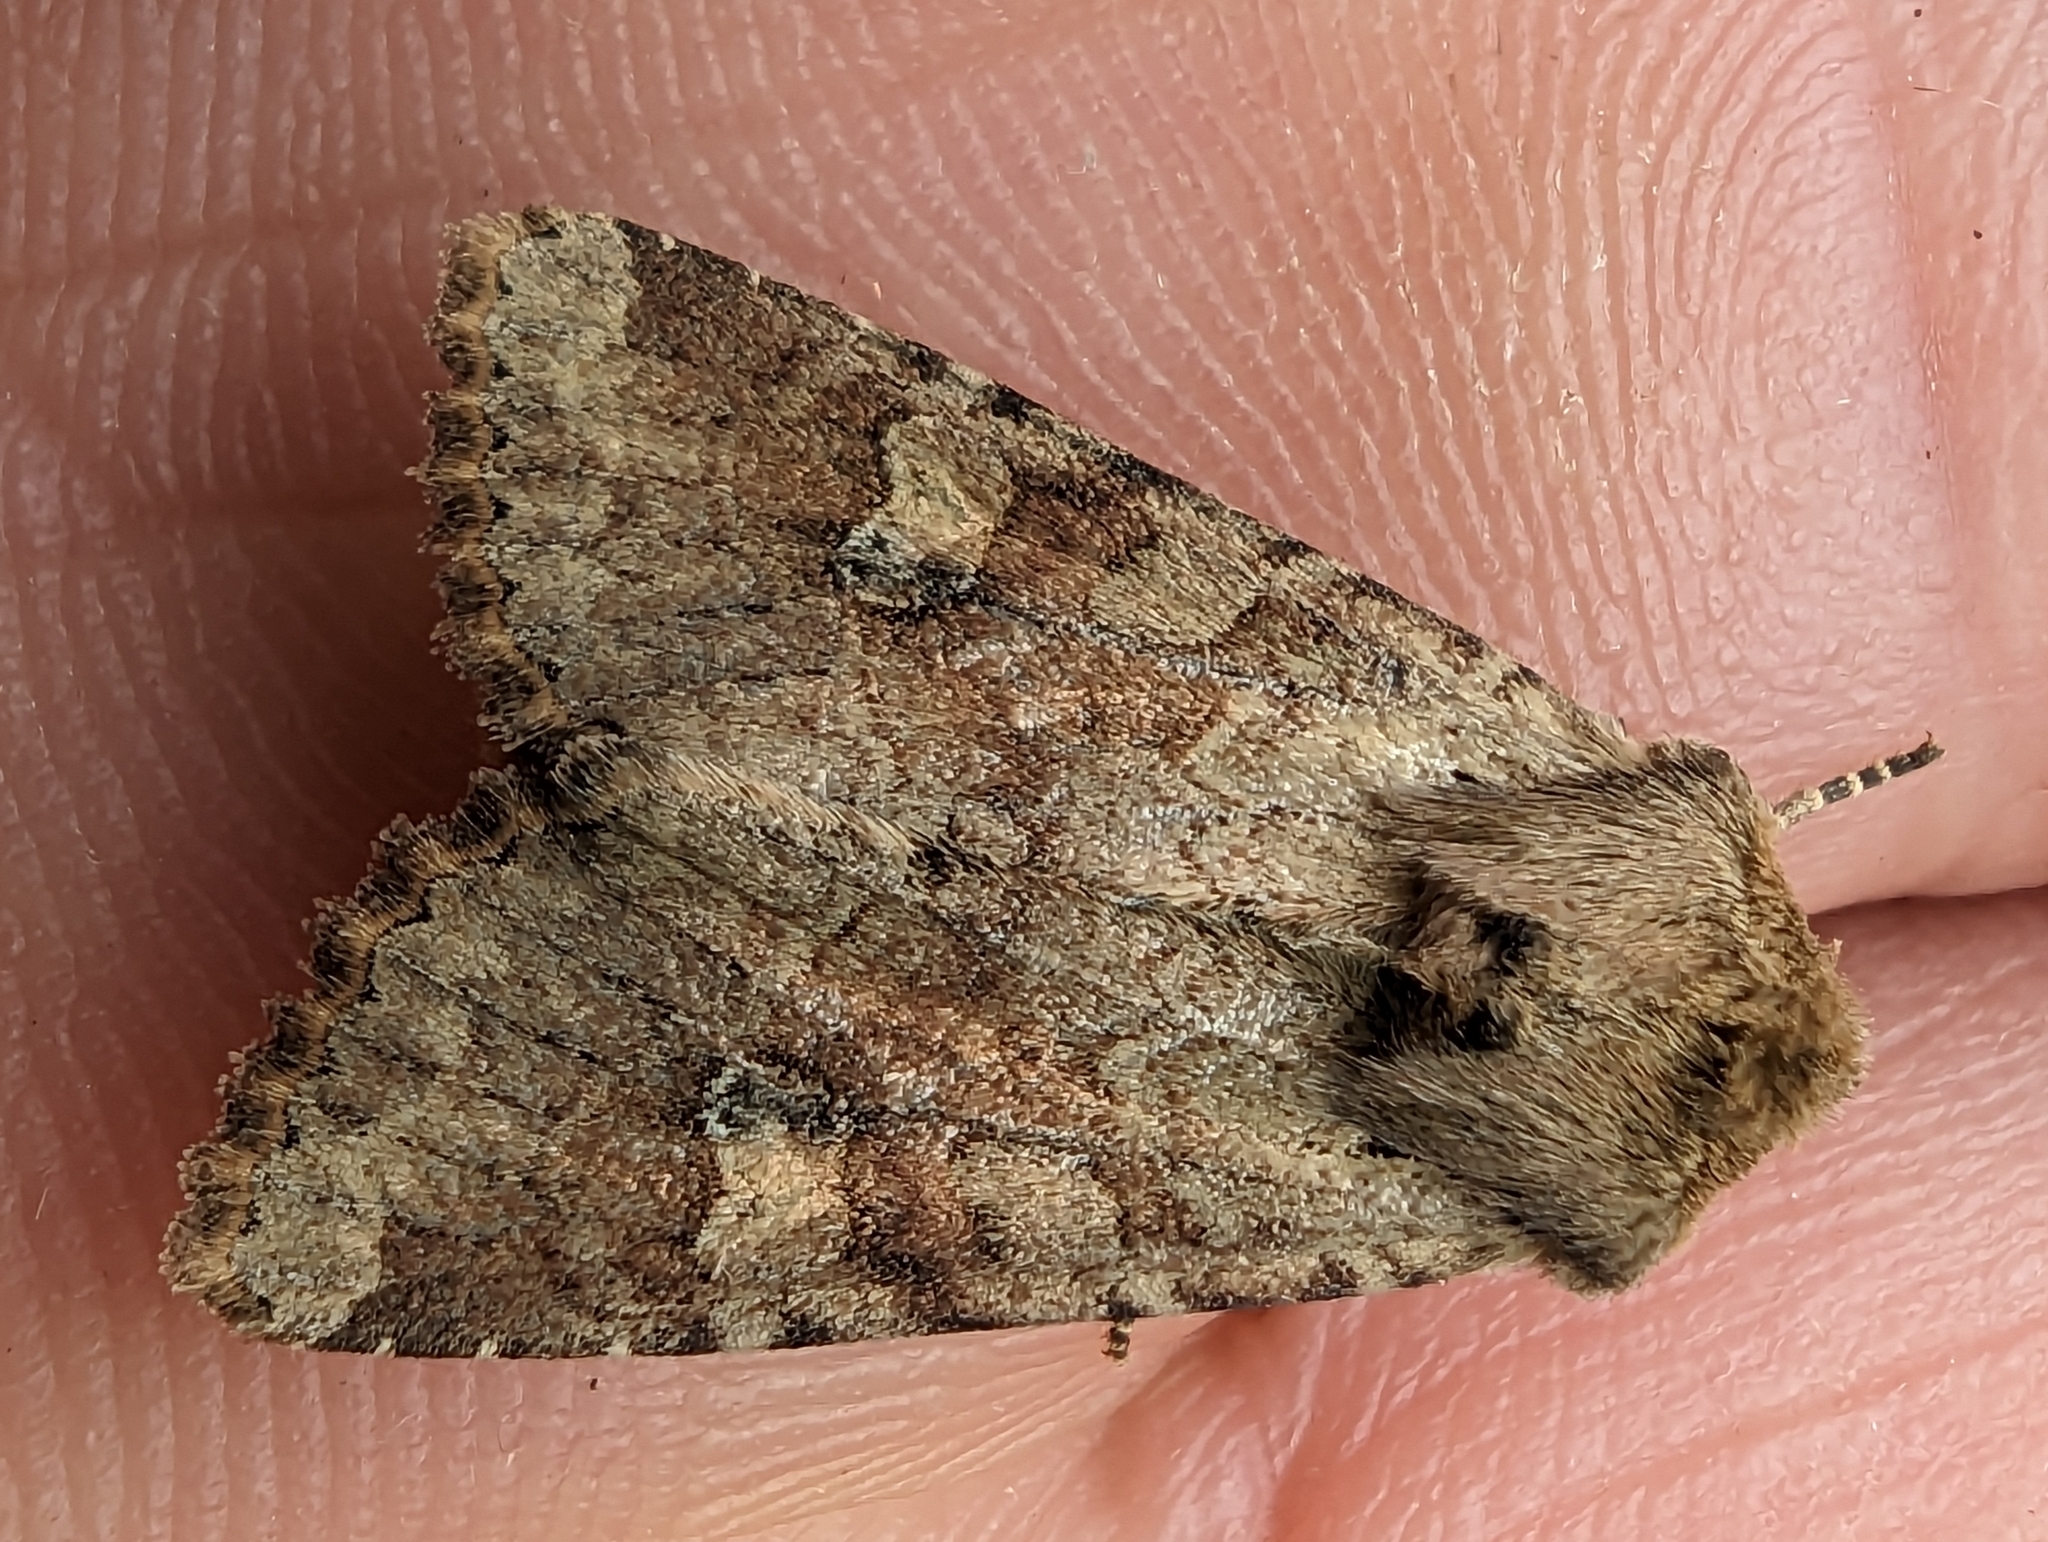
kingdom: Animalia
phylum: Arthropoda
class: Insecta
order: Lepidoptera
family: Noctuidae
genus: Apamea
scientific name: Apamea sordens
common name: Rustic shoulder-knot
